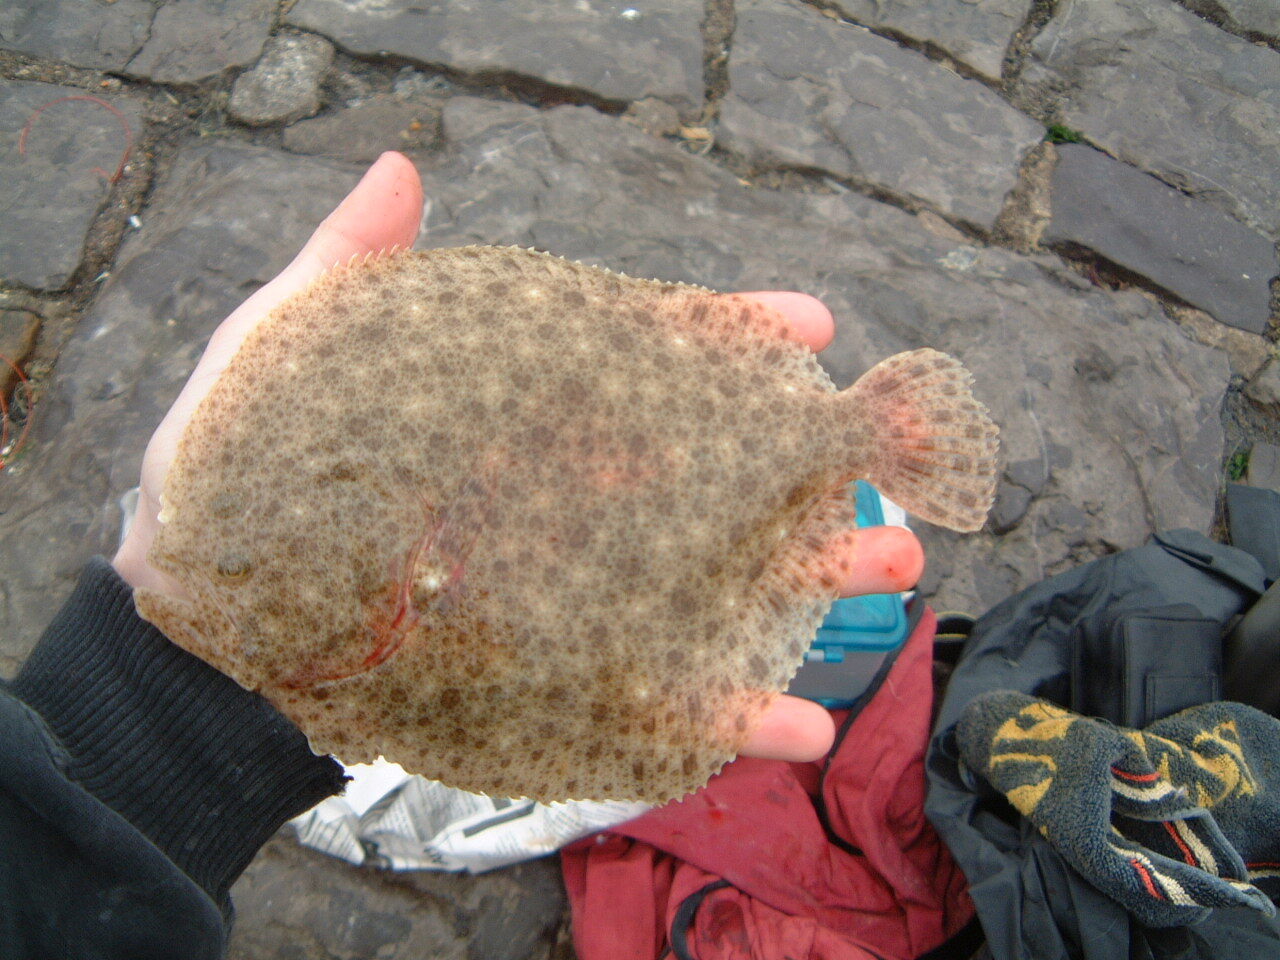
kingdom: Animalia
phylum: Chordata
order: Pleuronectiformes
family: Scophthalmidae
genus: Scophthalmus
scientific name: Scophthalmus maximus
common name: Turbot
